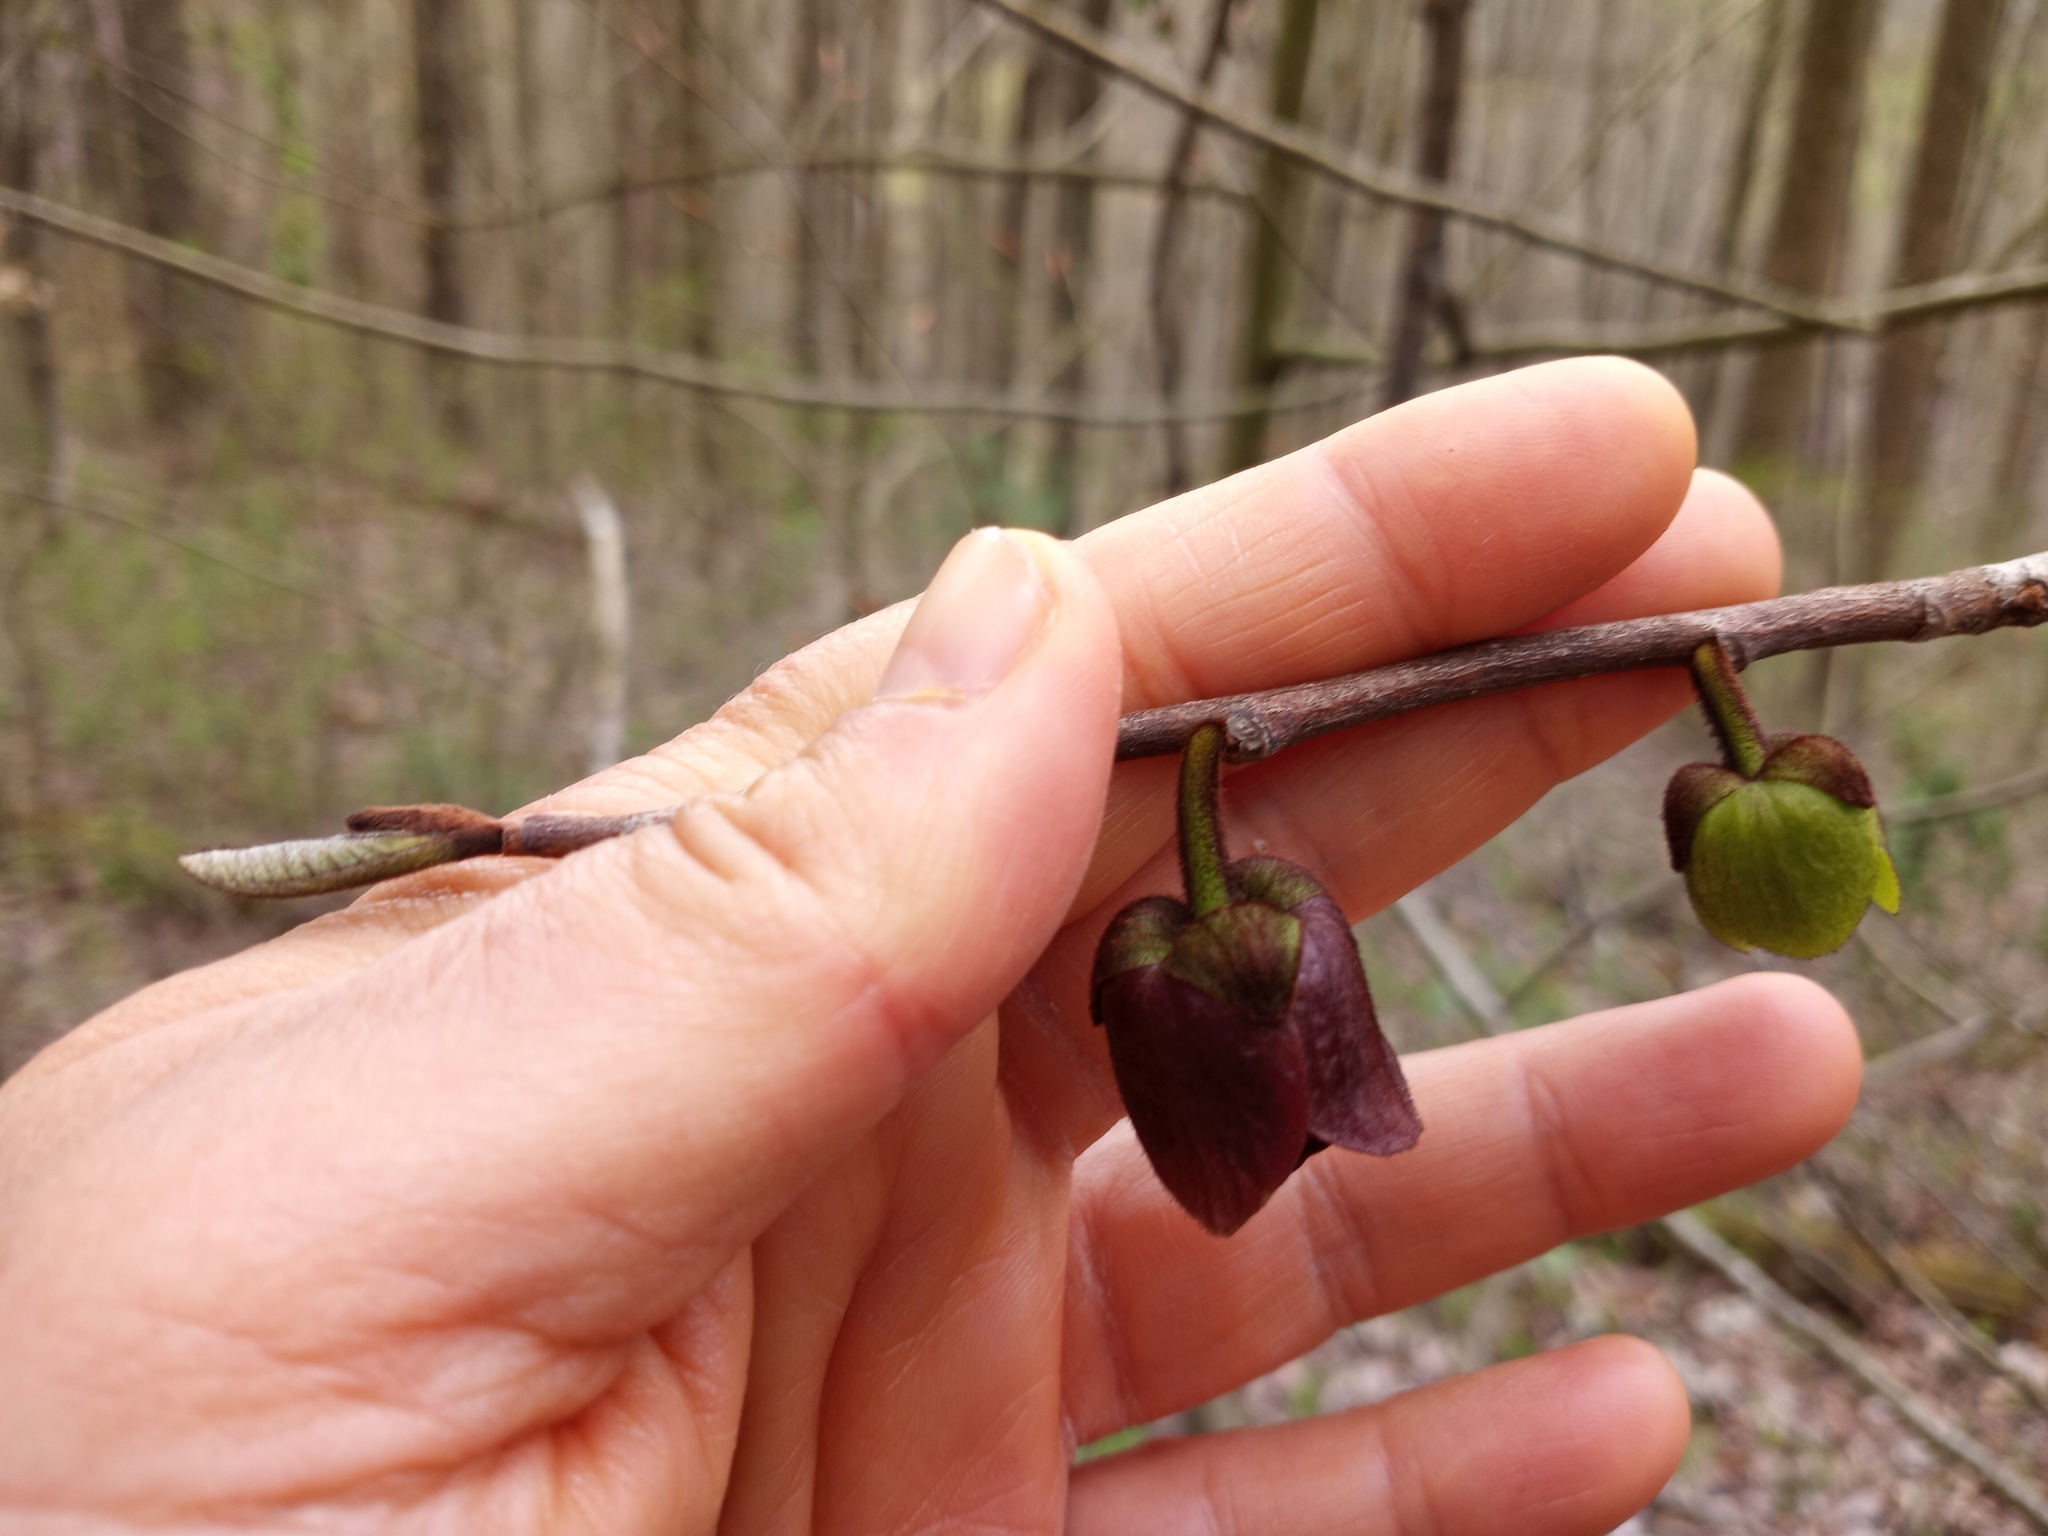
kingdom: Plantae
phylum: Tracheophyta
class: Magnoliopsida
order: Magnoliales
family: Annonaceae
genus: Asimina
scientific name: Asimina triloba
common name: Dog-banana
